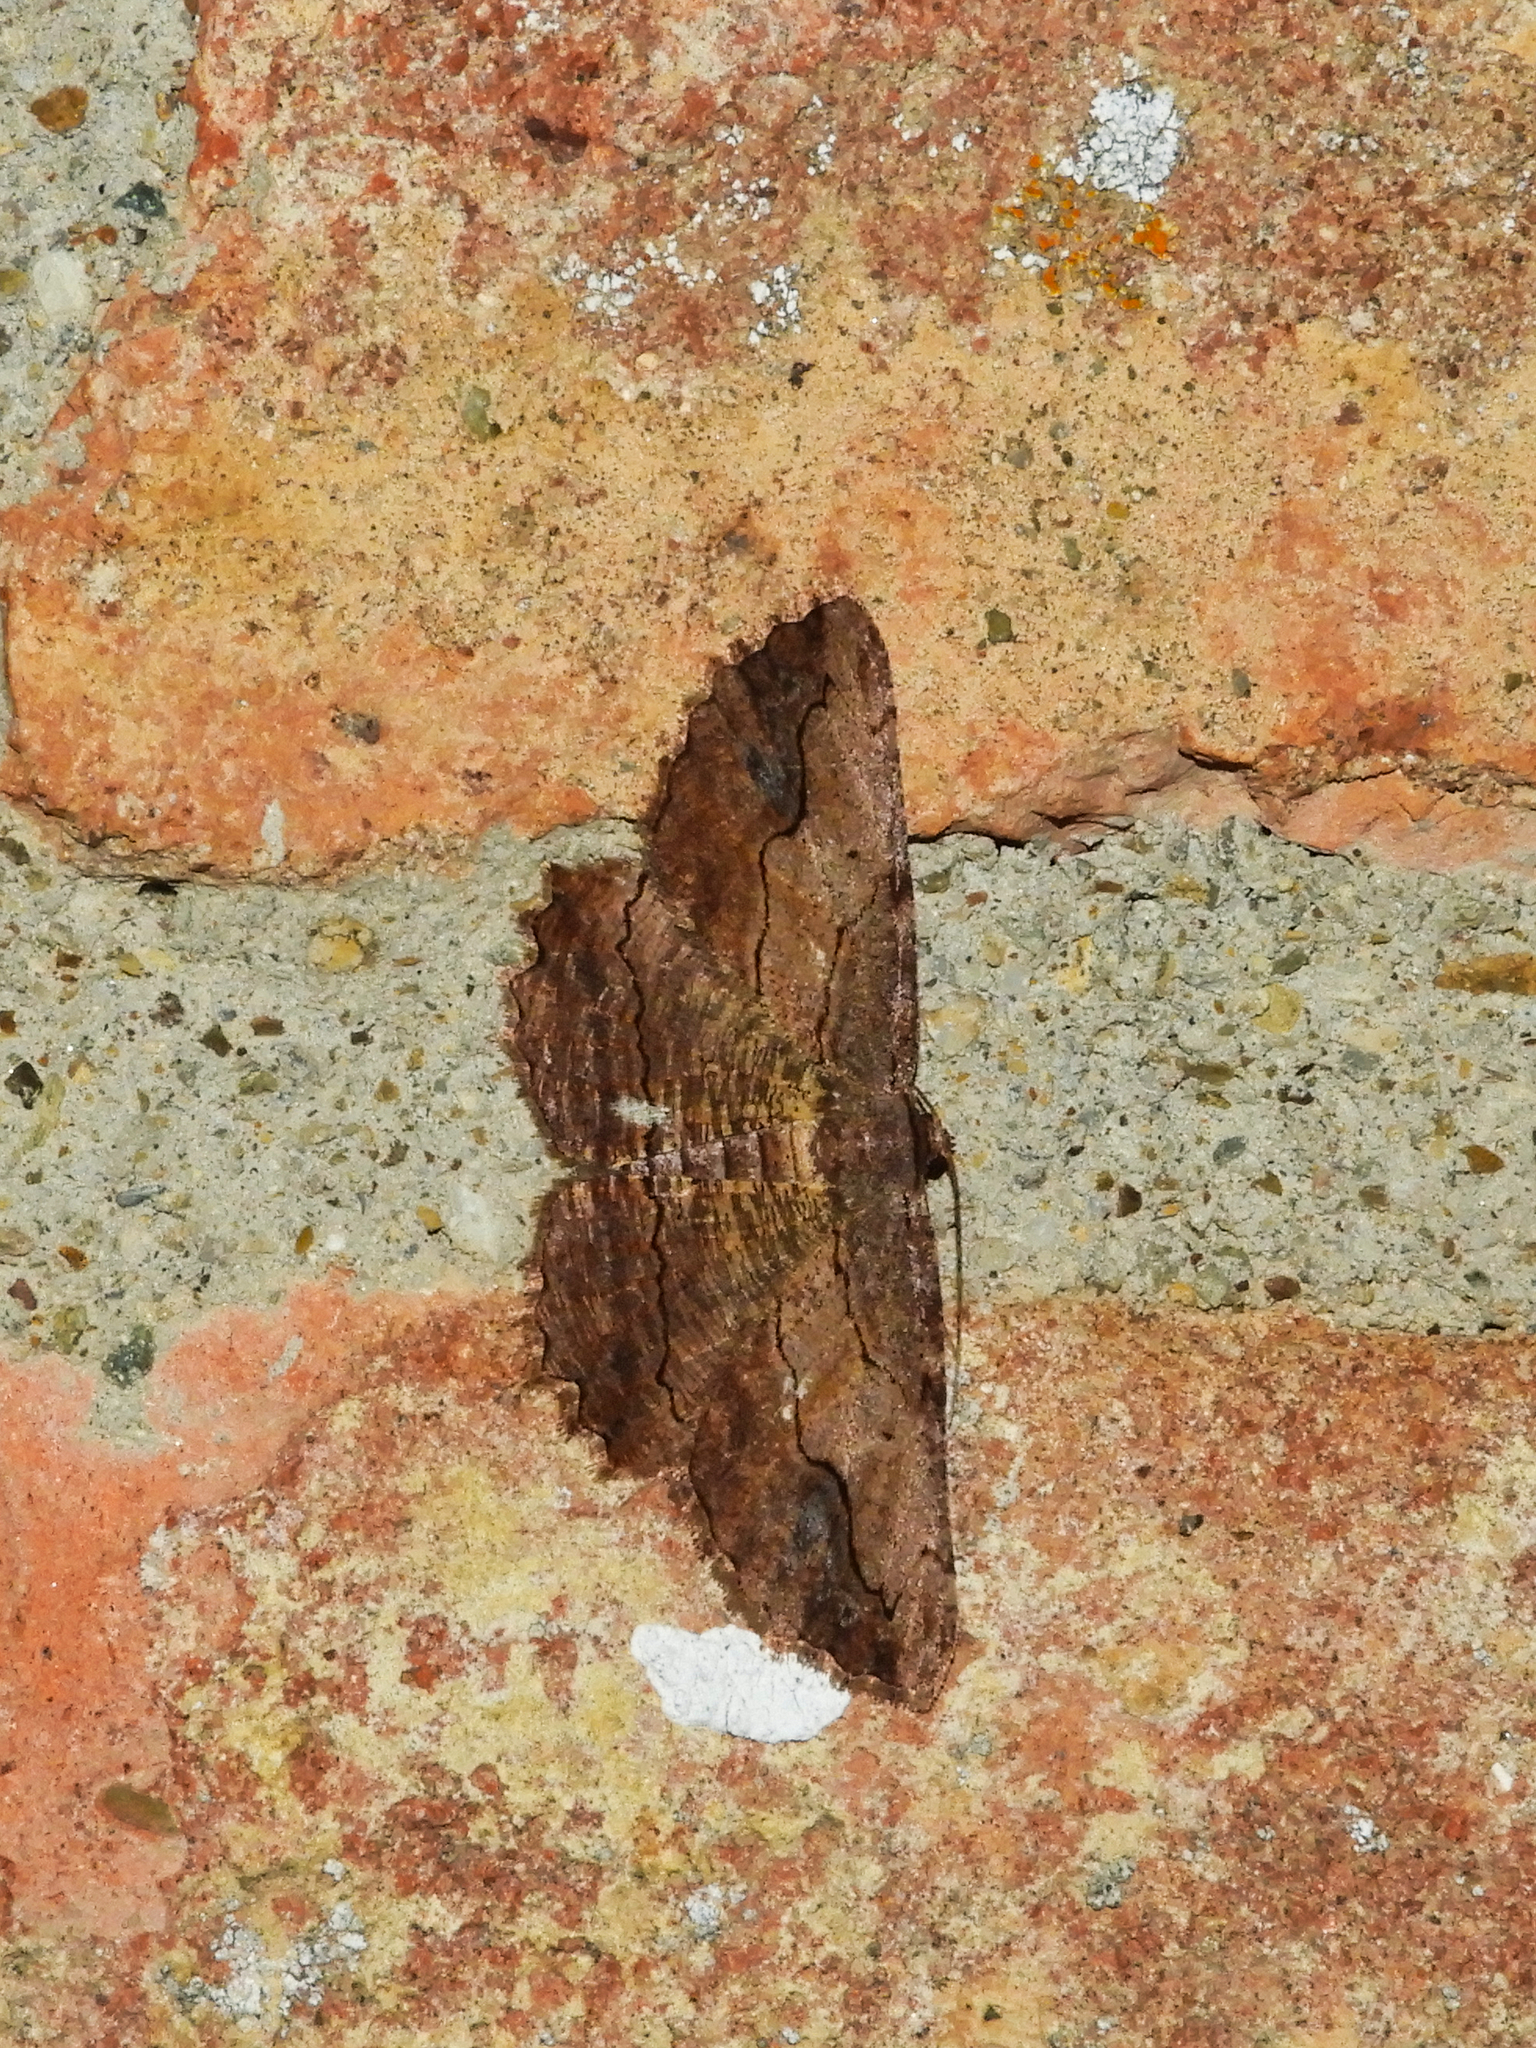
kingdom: Animalia
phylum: Arthropoda
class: Insecta
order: Lepidoptera
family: Geometridae
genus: Menophra
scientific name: Menophra abruptaria
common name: Waved umber
